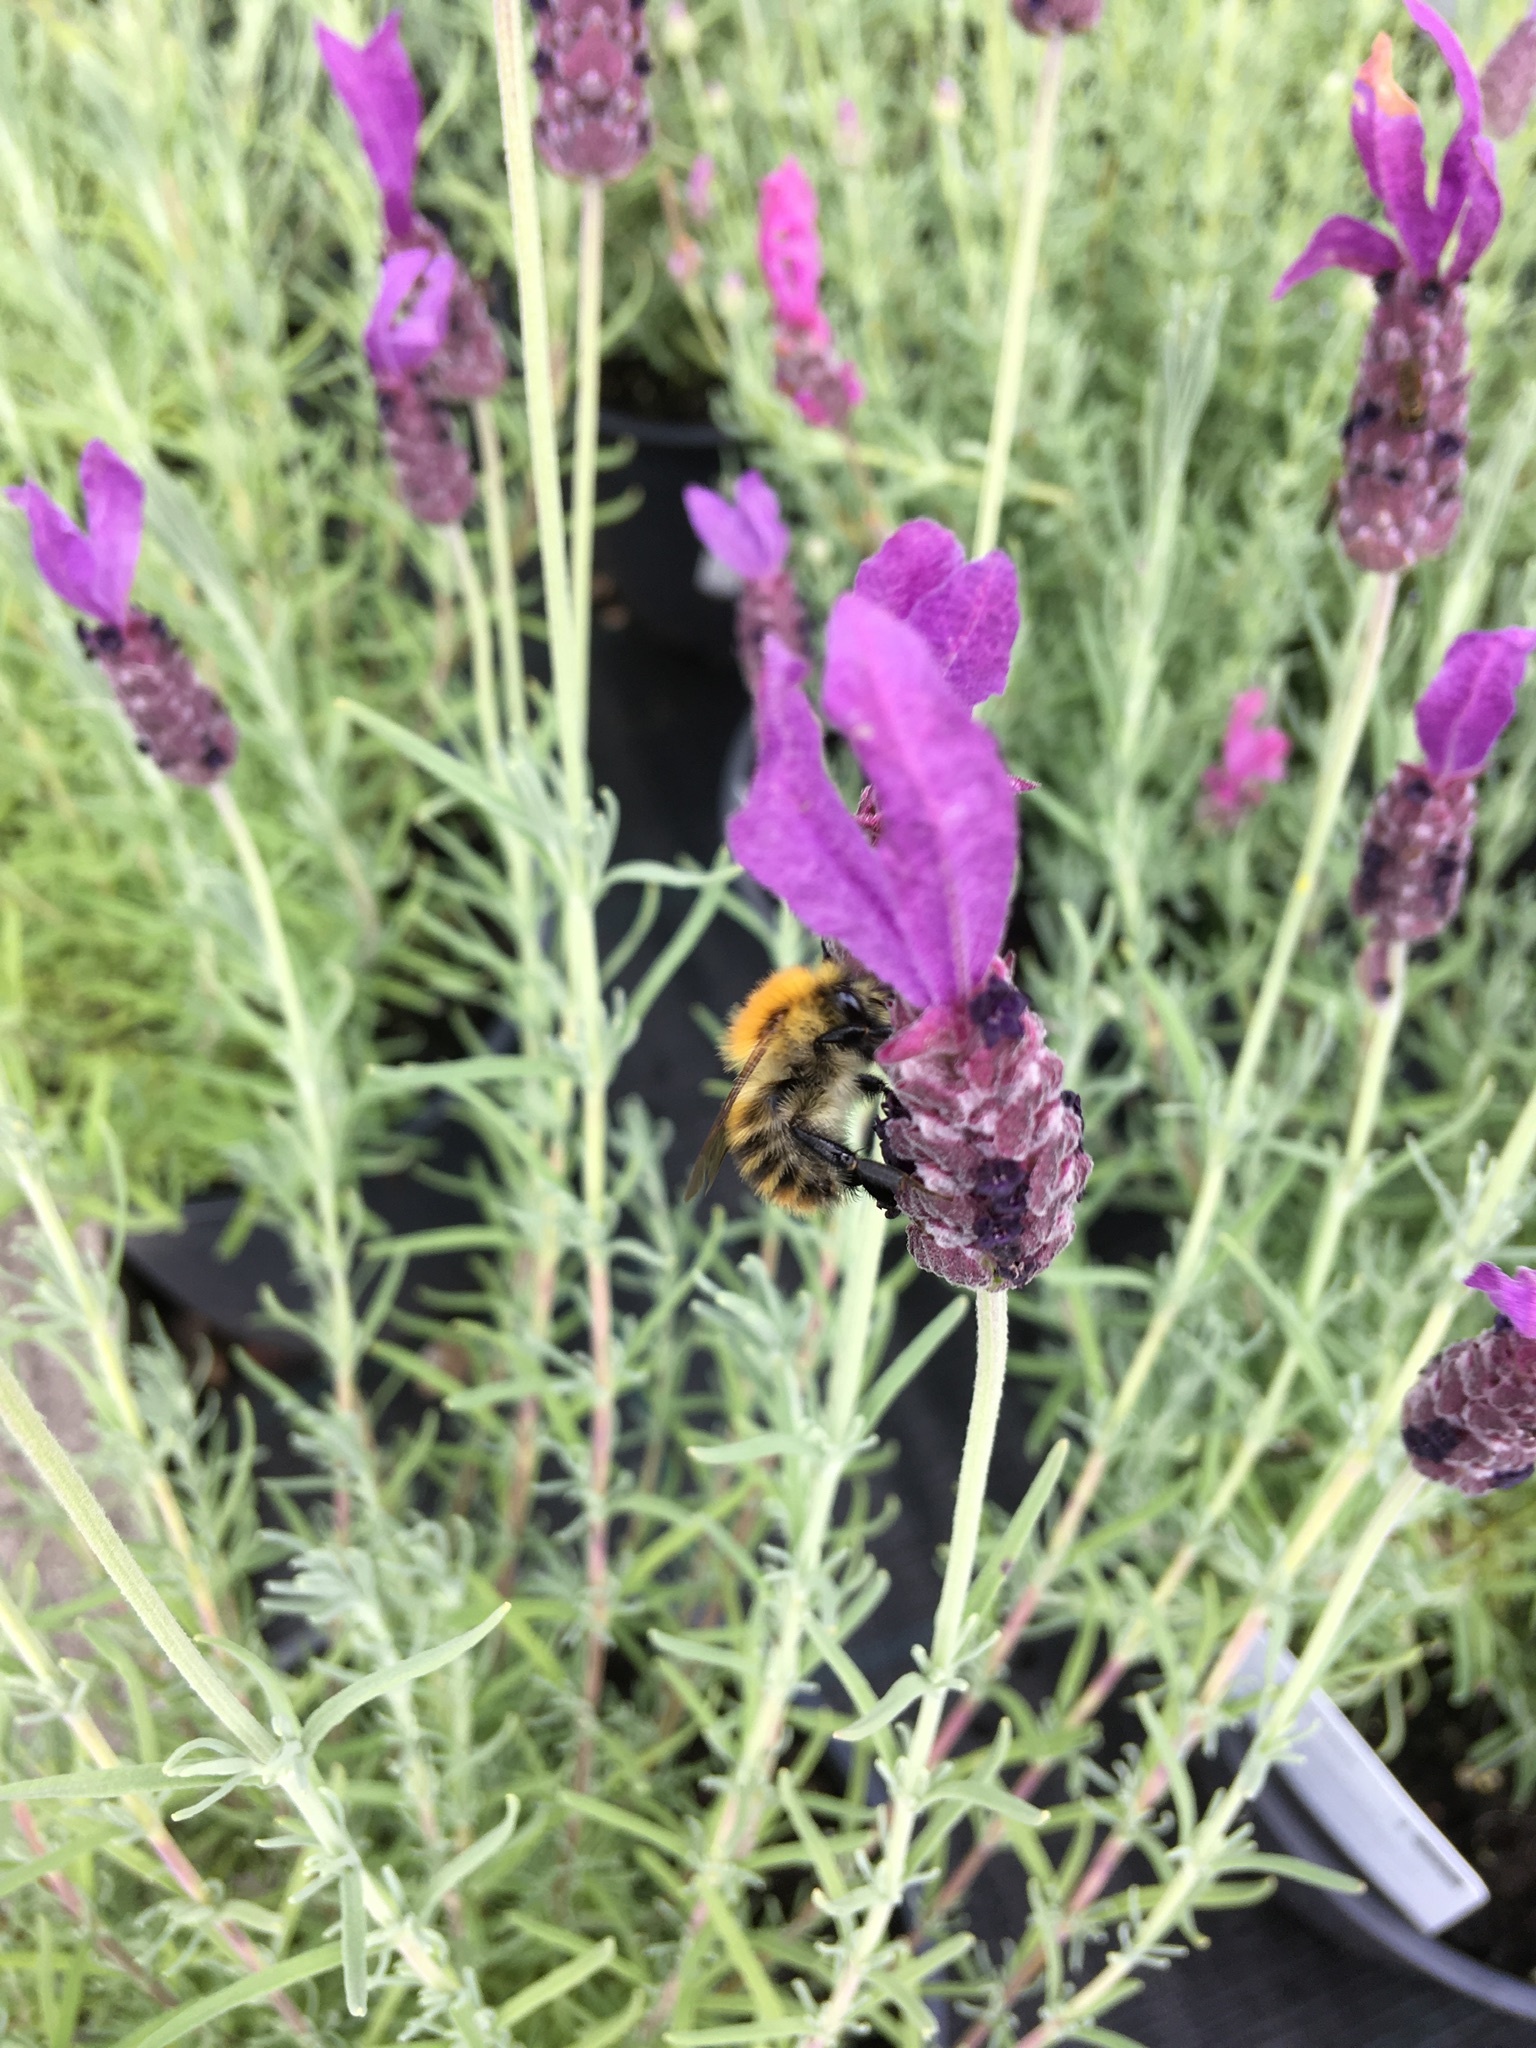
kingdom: Animalia
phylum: Arthropoda
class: Insecta
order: Hymenoptera
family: Apidae
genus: Bombus
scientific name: Bombus pascuorum
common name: Common carder bee
